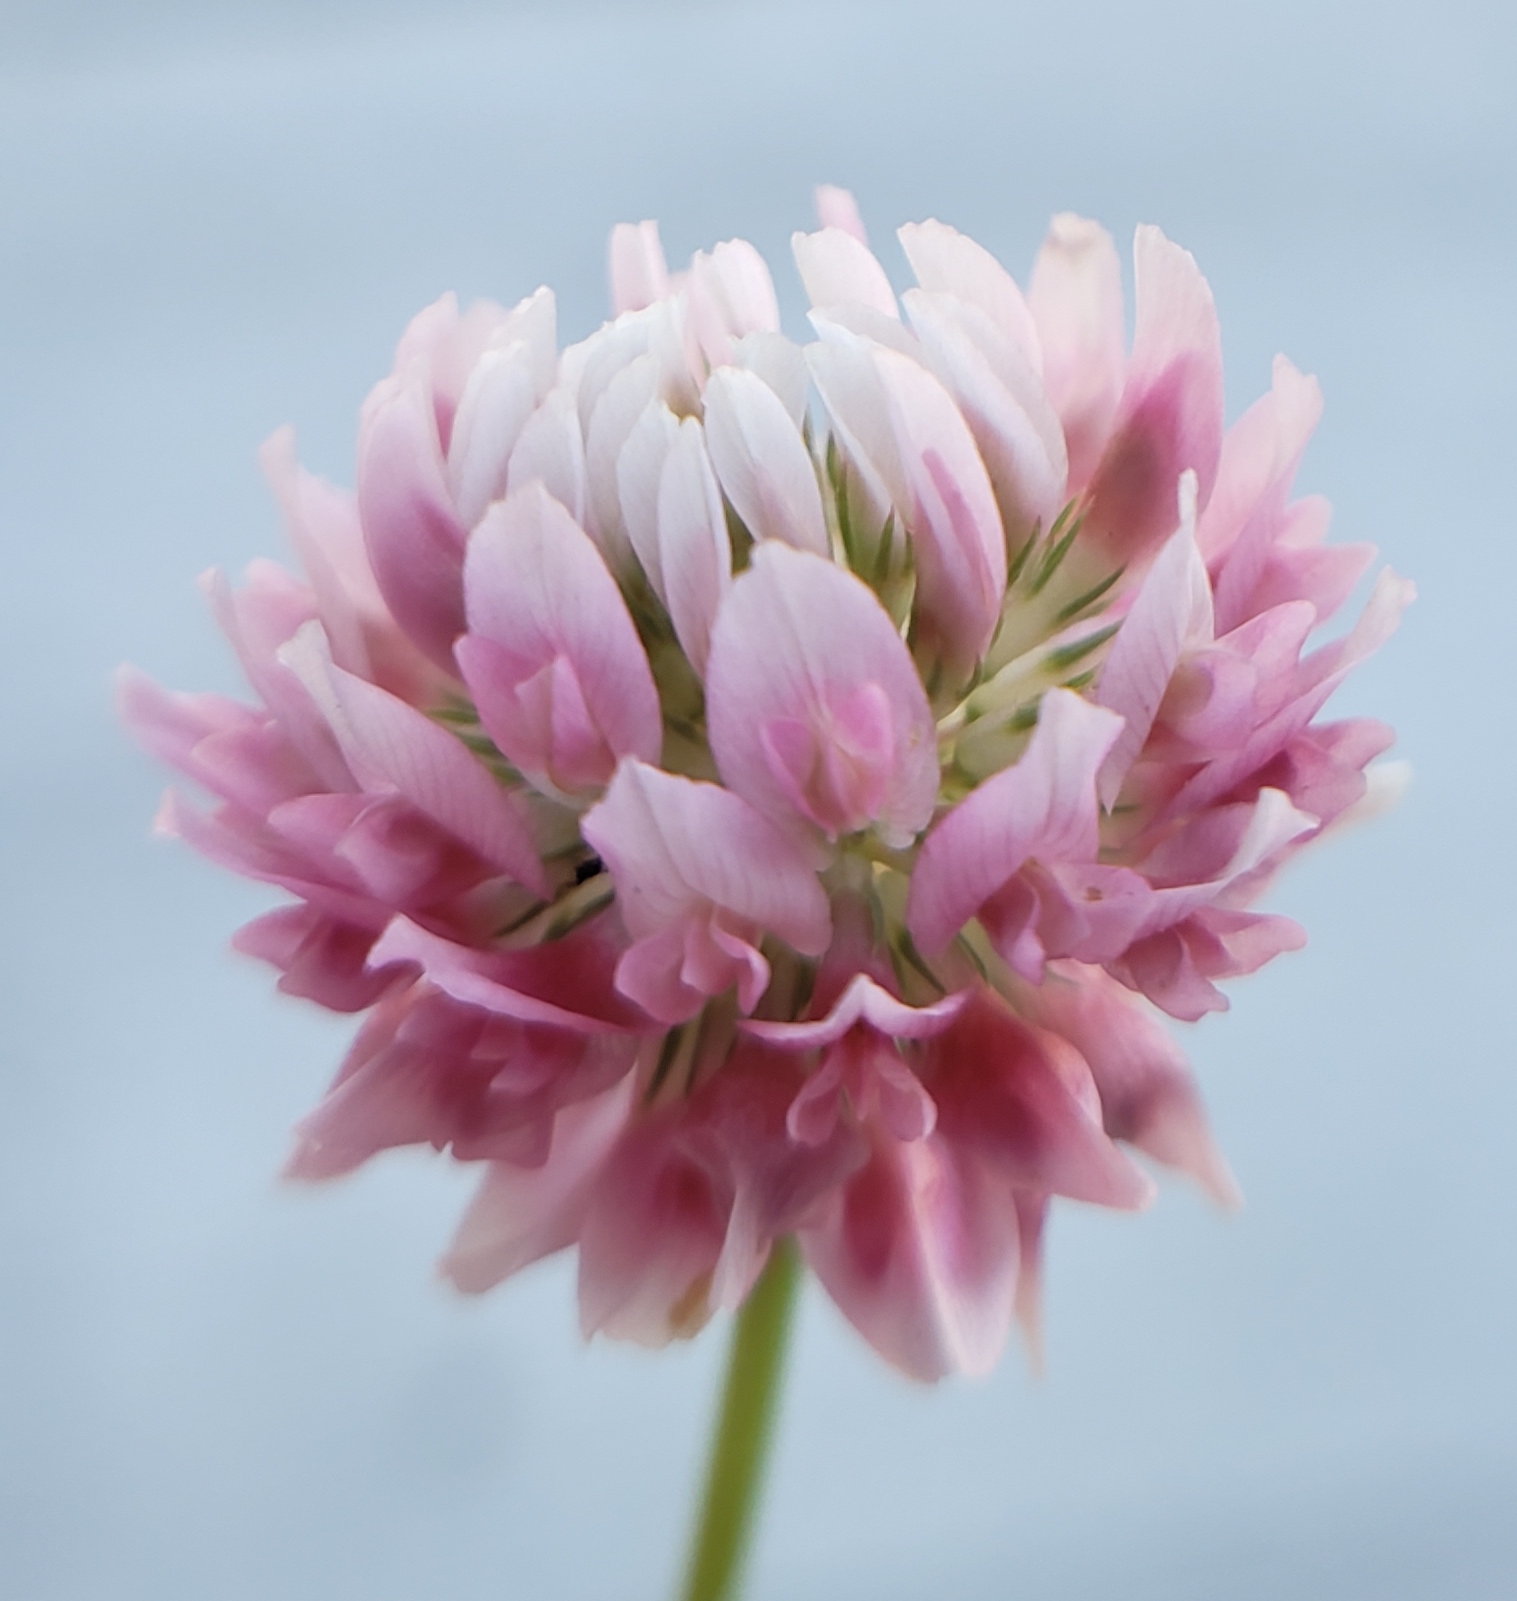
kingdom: Plantae
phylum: Tracheophyta
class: Magnoliopsida
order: Fabales
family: Fabaceae
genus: Trifolium
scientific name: Trifolium hybridum
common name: Alsike clover
